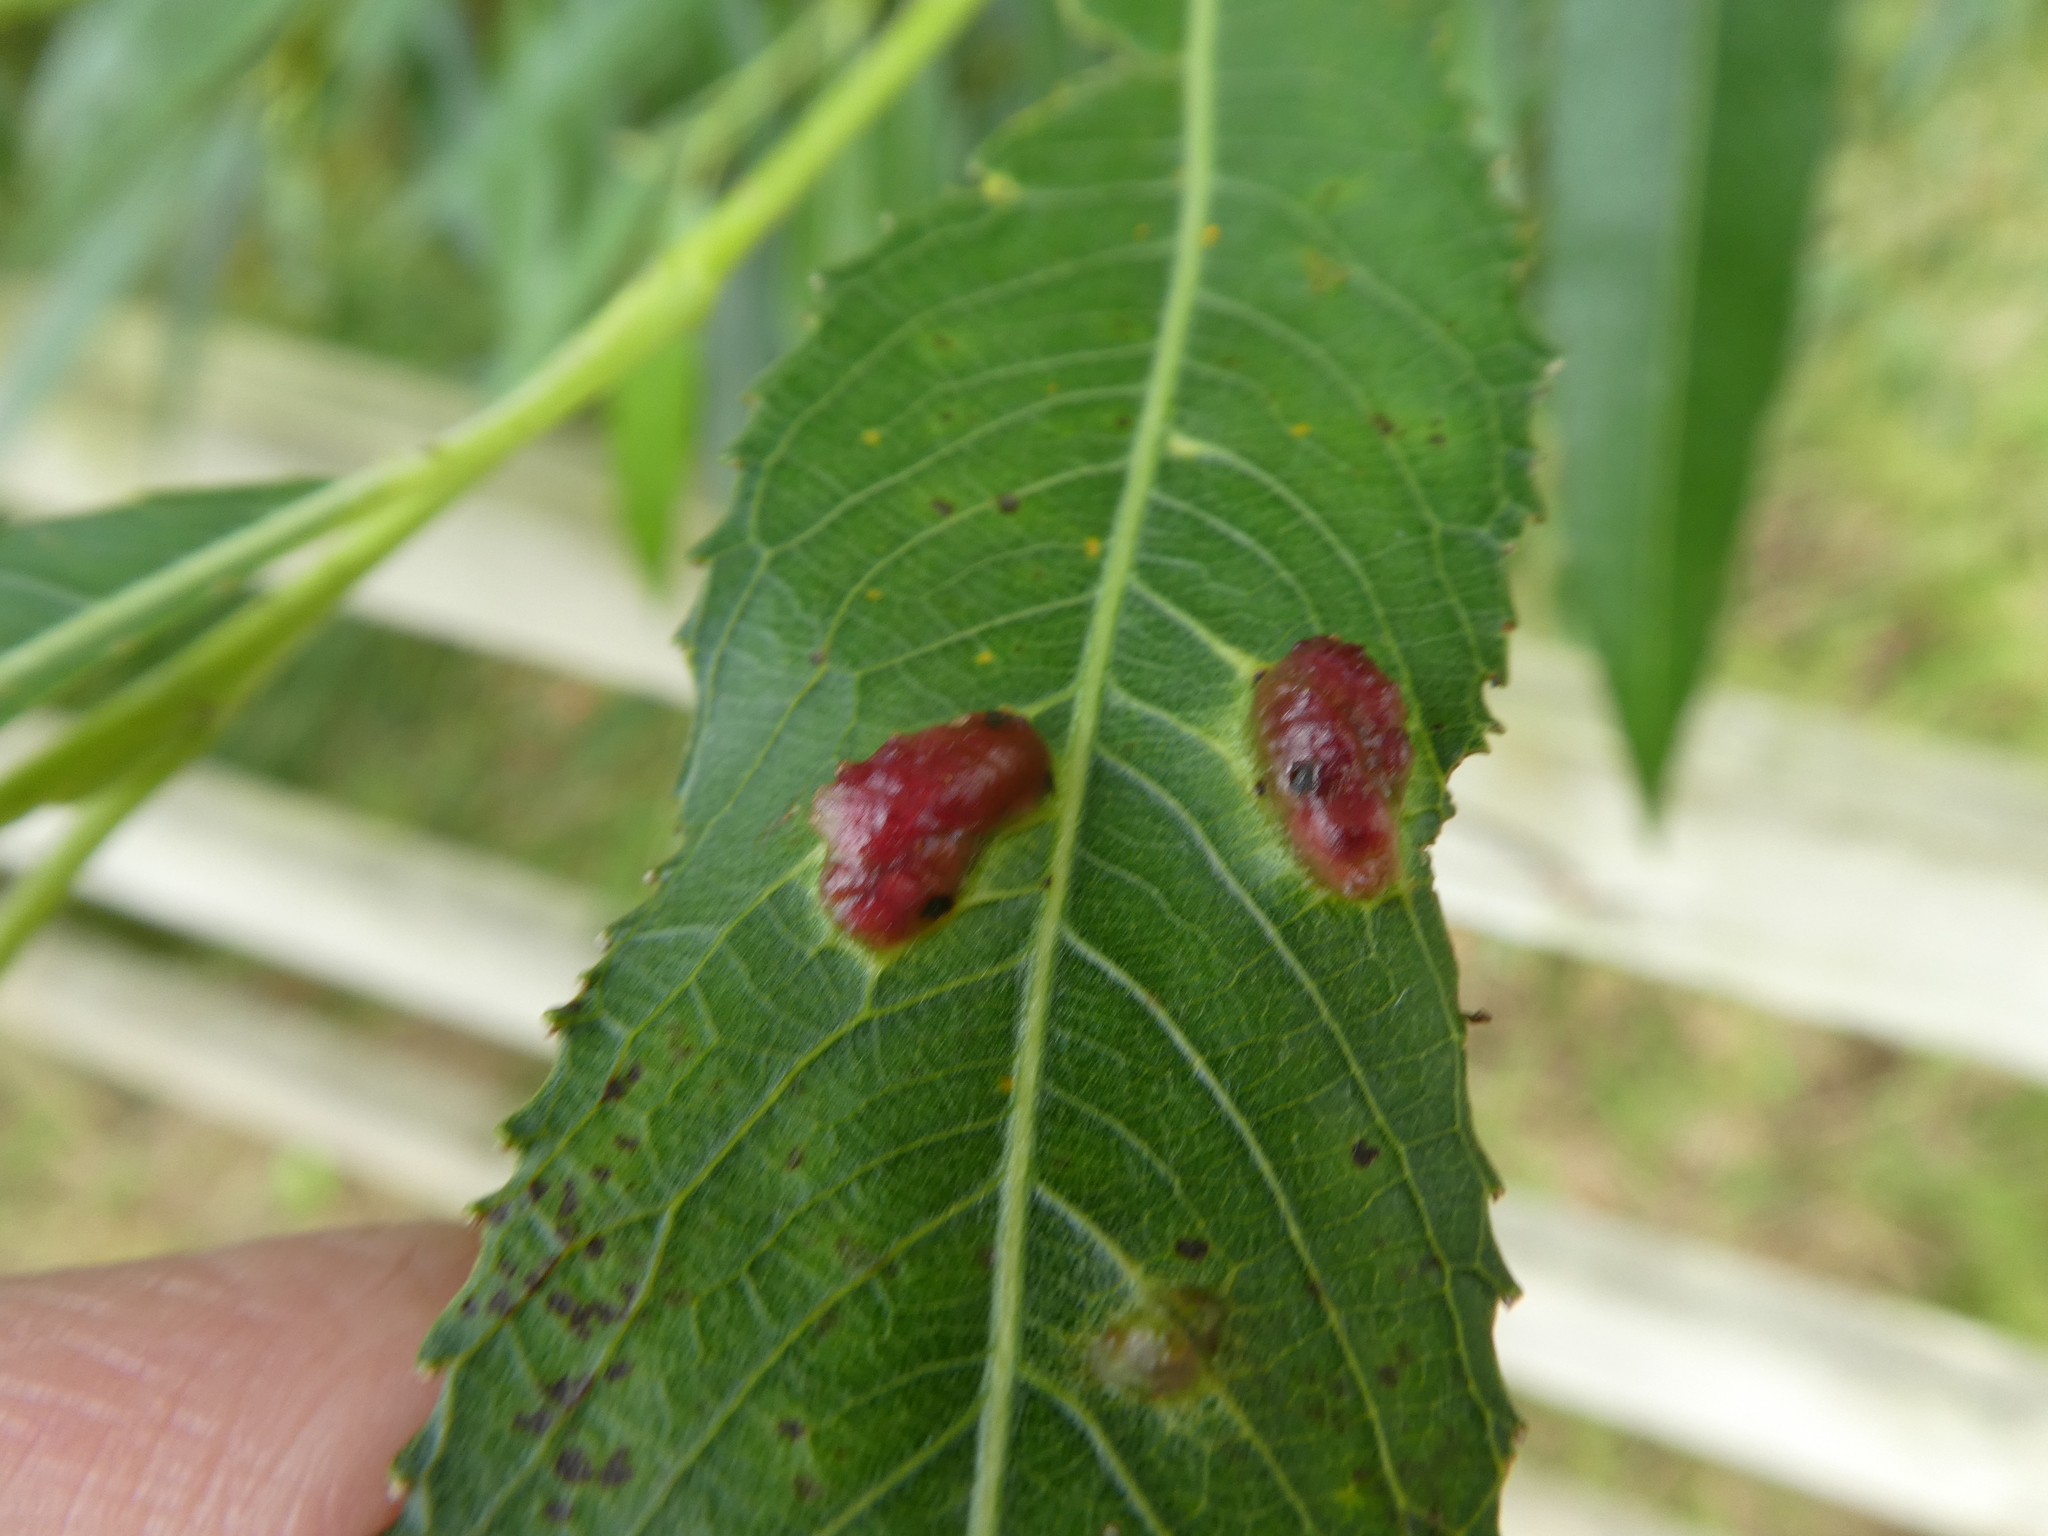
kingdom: Animalia
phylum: Arthropoda
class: Insecta
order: Hymenoptera
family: Tenthredinidae
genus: Pontania
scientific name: Pontania proxima
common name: Common sawfly
